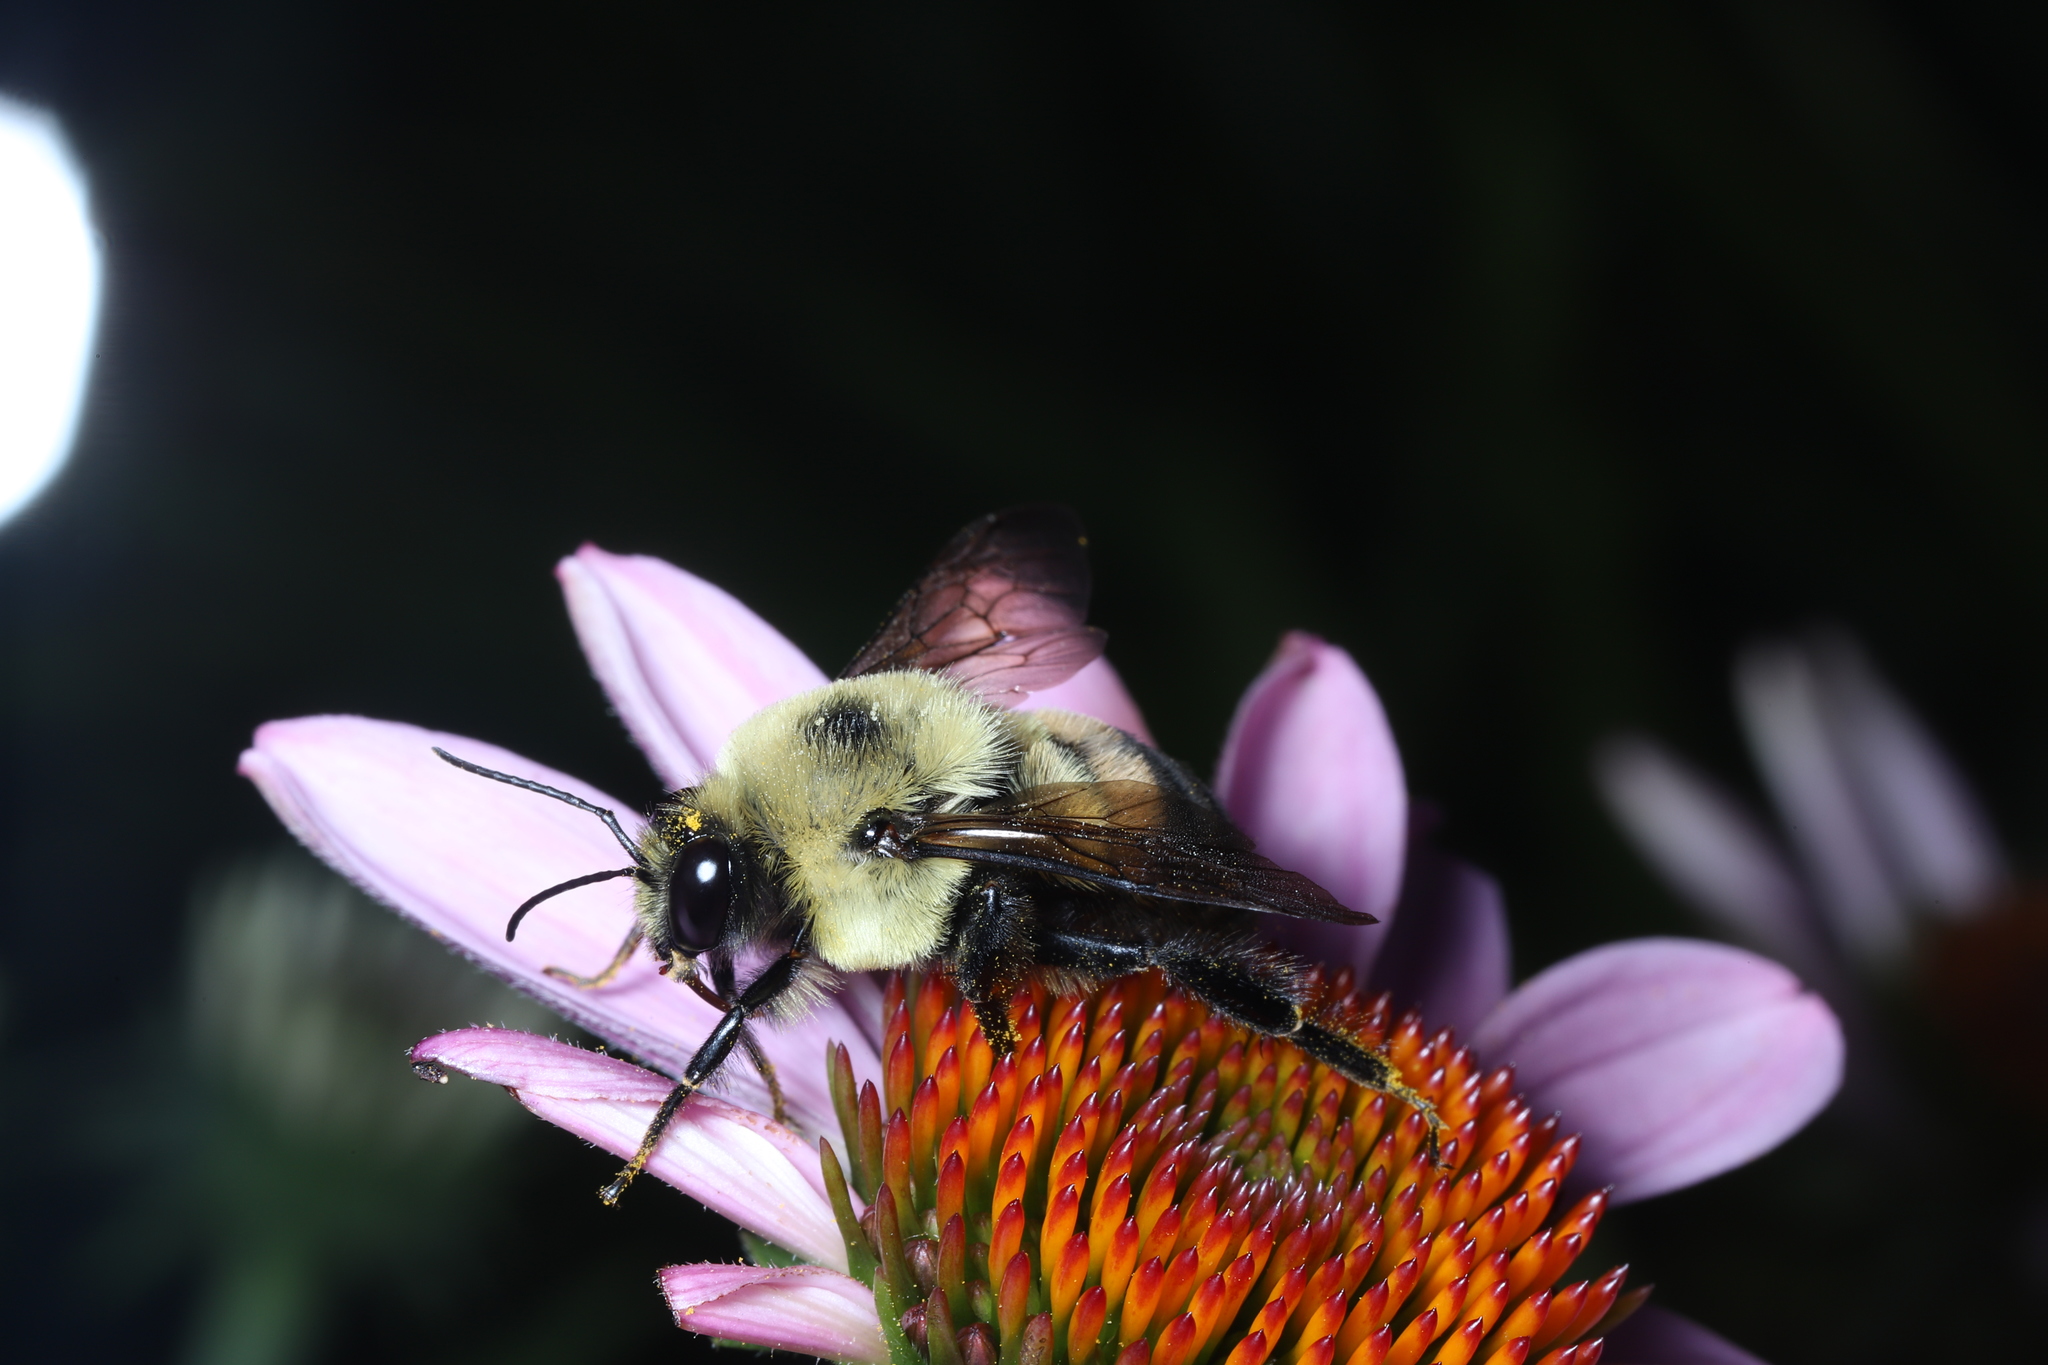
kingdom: Animalia
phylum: Arthropoda
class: Insecta
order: Hymenoptera
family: Apidae
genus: Bombus
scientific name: Bombus griseocollis
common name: Brown-belted bumble bee
